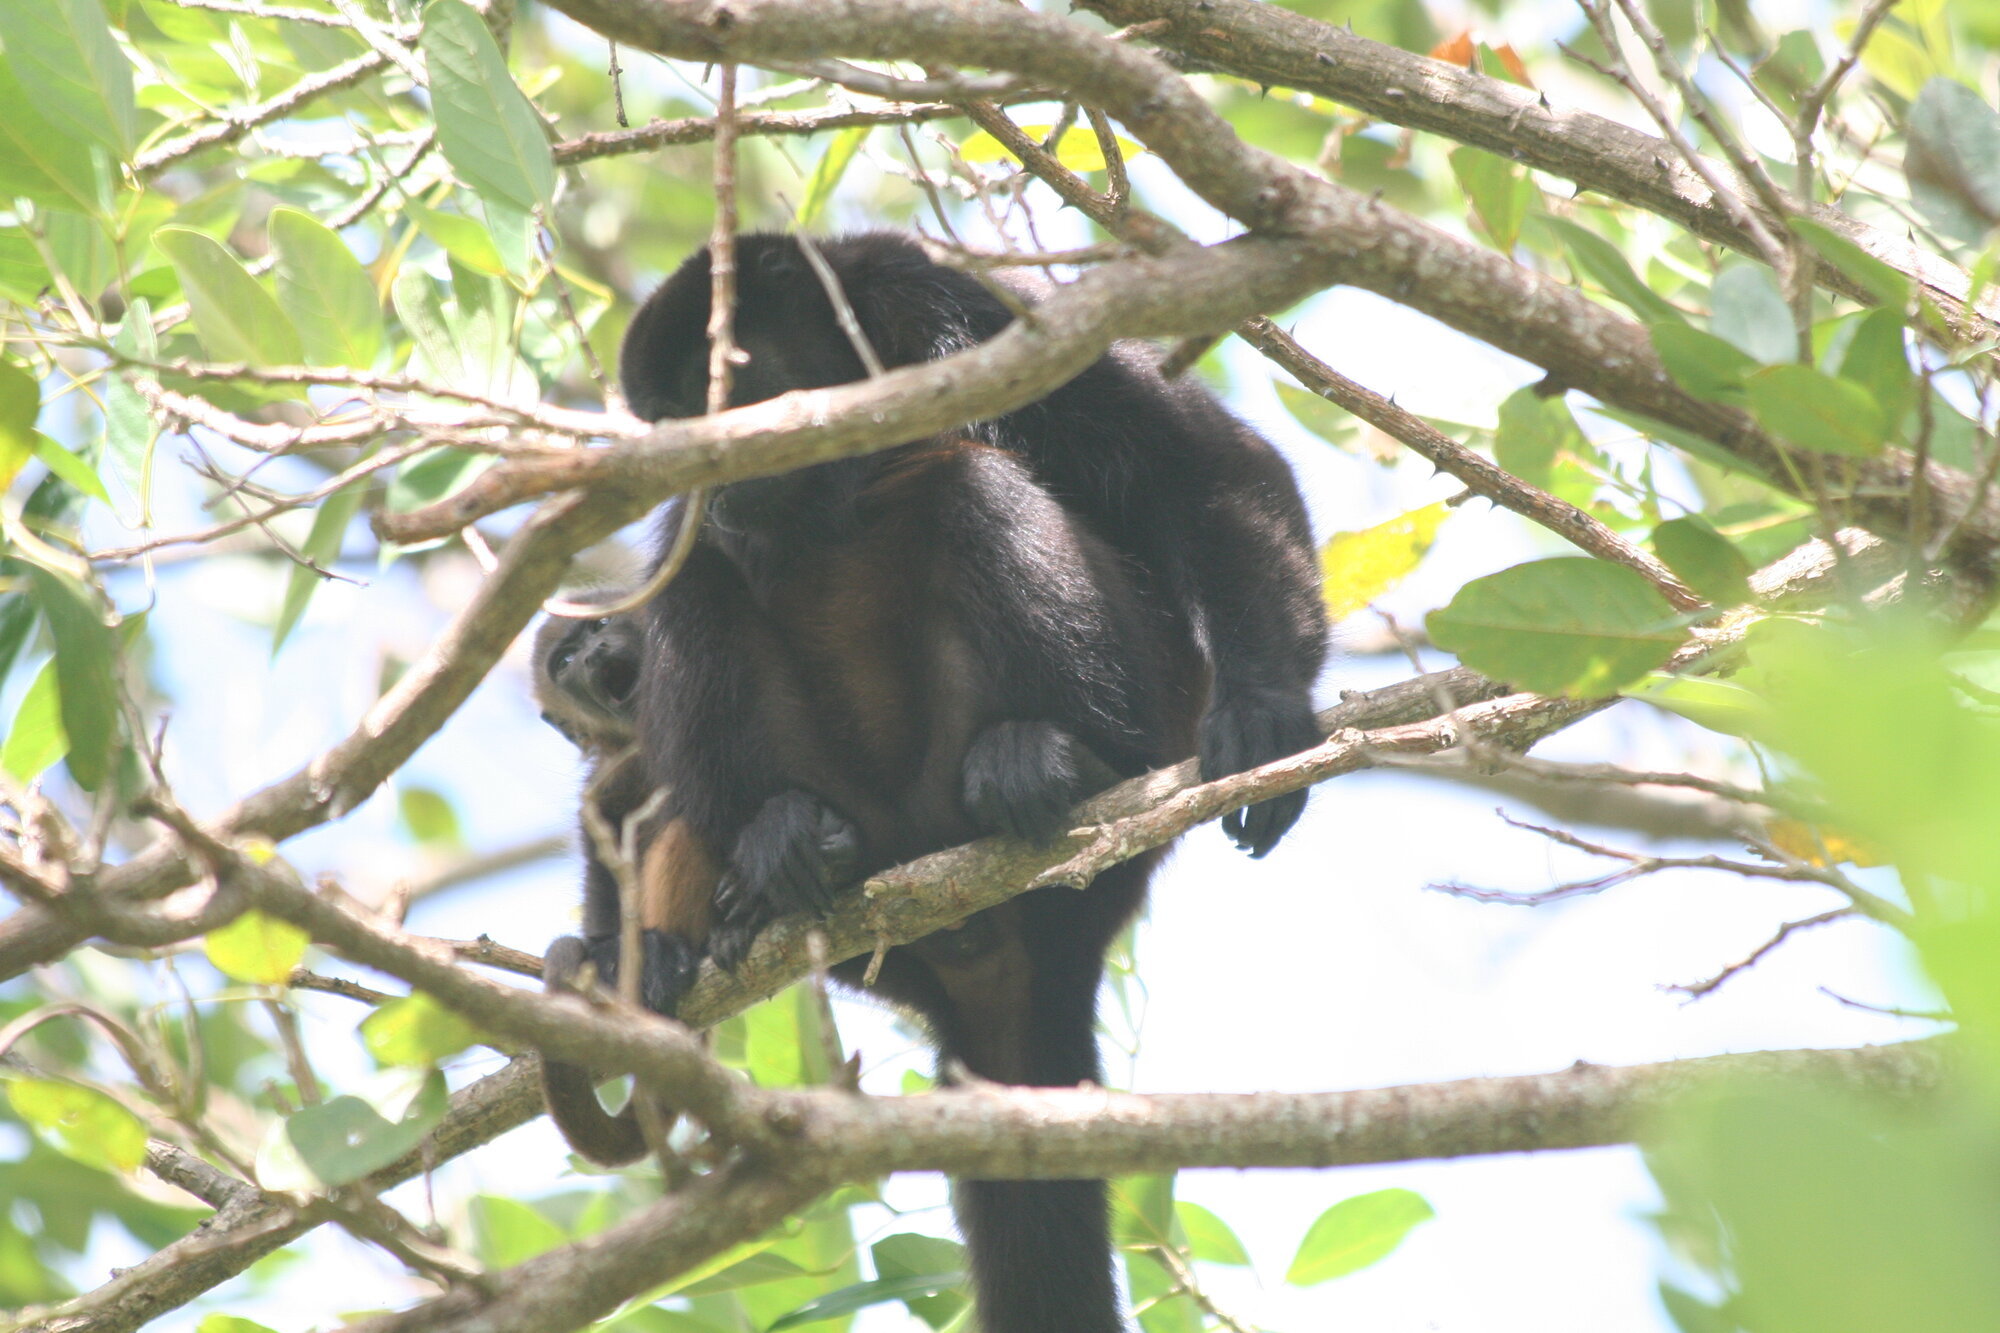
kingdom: Animalia
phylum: Chordata
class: Mammalia
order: Primates
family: Atelidae
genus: Alouatta
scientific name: Alouatta palliata
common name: Mantled howler
